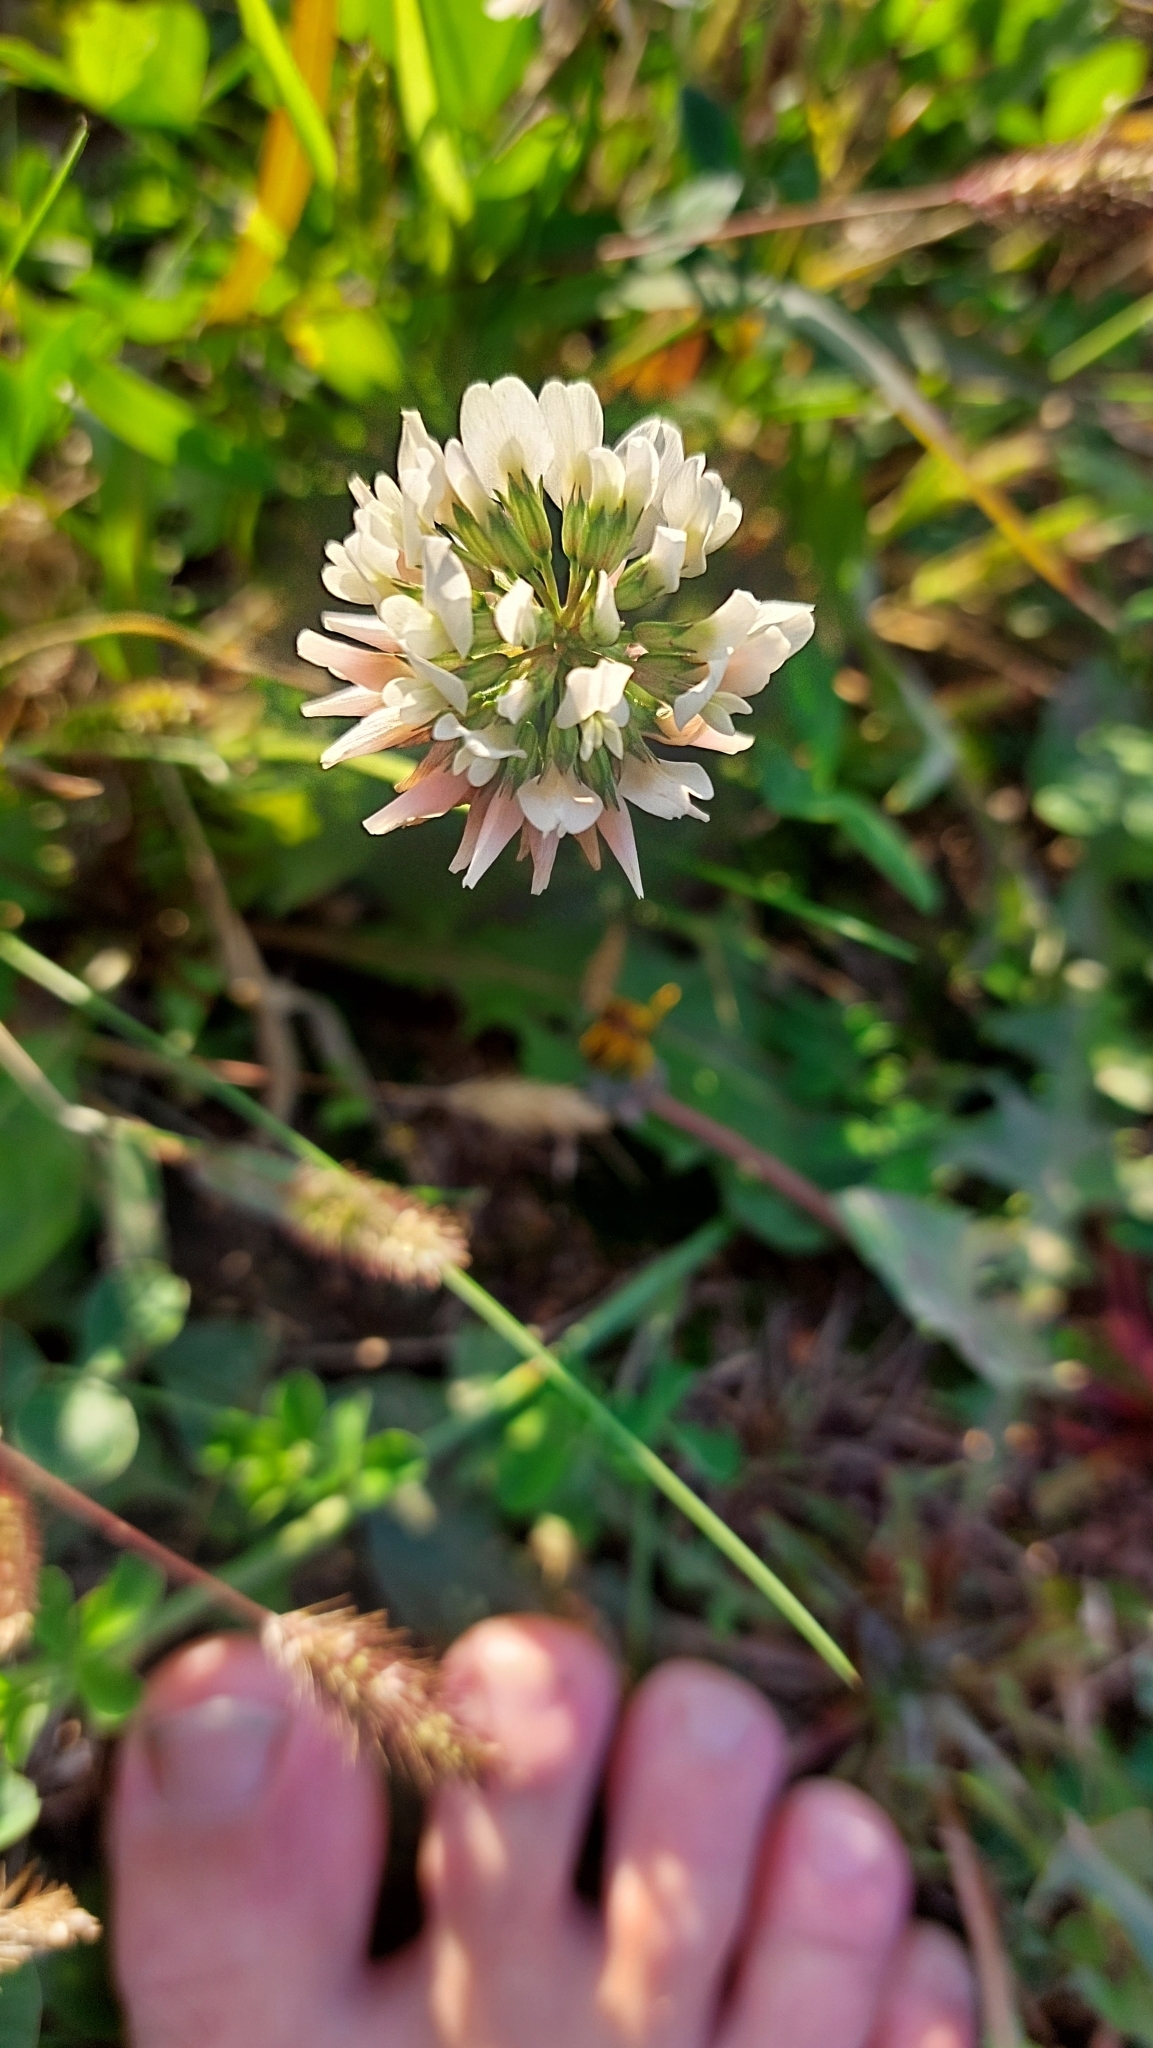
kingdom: Plantae
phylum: Tracheophyta
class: Magnoliopsida
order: Fabales
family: Fabaceae
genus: Trifolium
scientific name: Trifolium repens
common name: White clover
